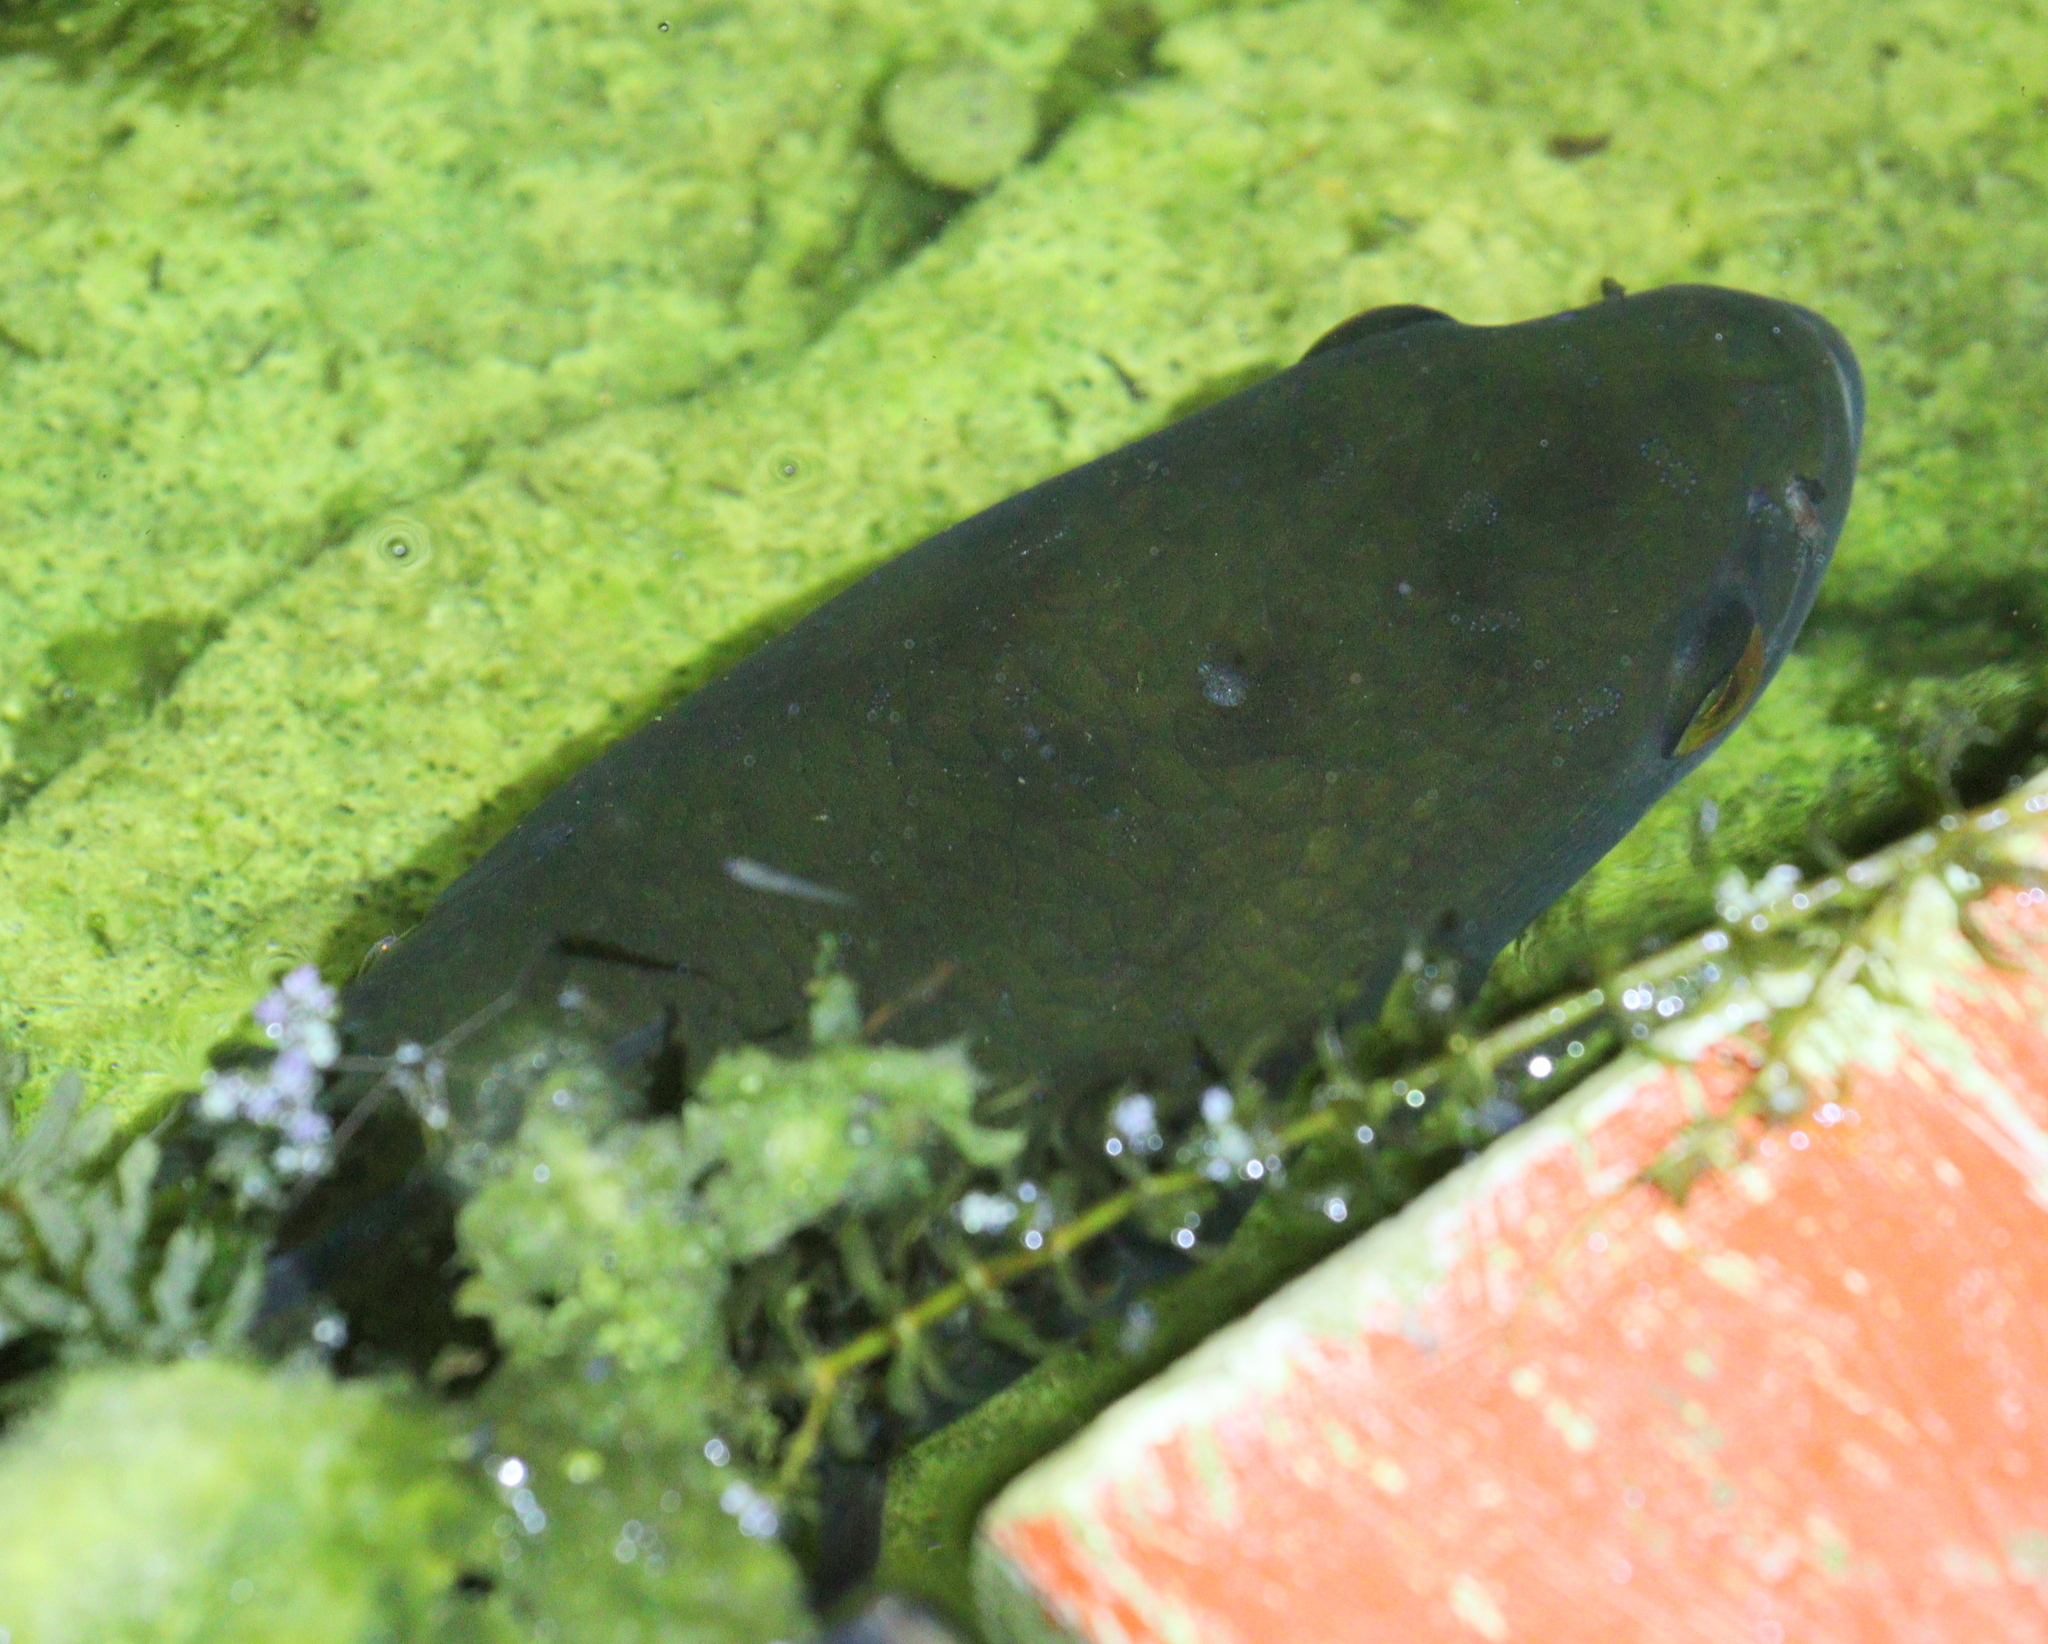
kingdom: Animalia
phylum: Chordata
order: Perciformes
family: Channidae
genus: Channa
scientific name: Channa micropeltes
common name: Giant snakehead
